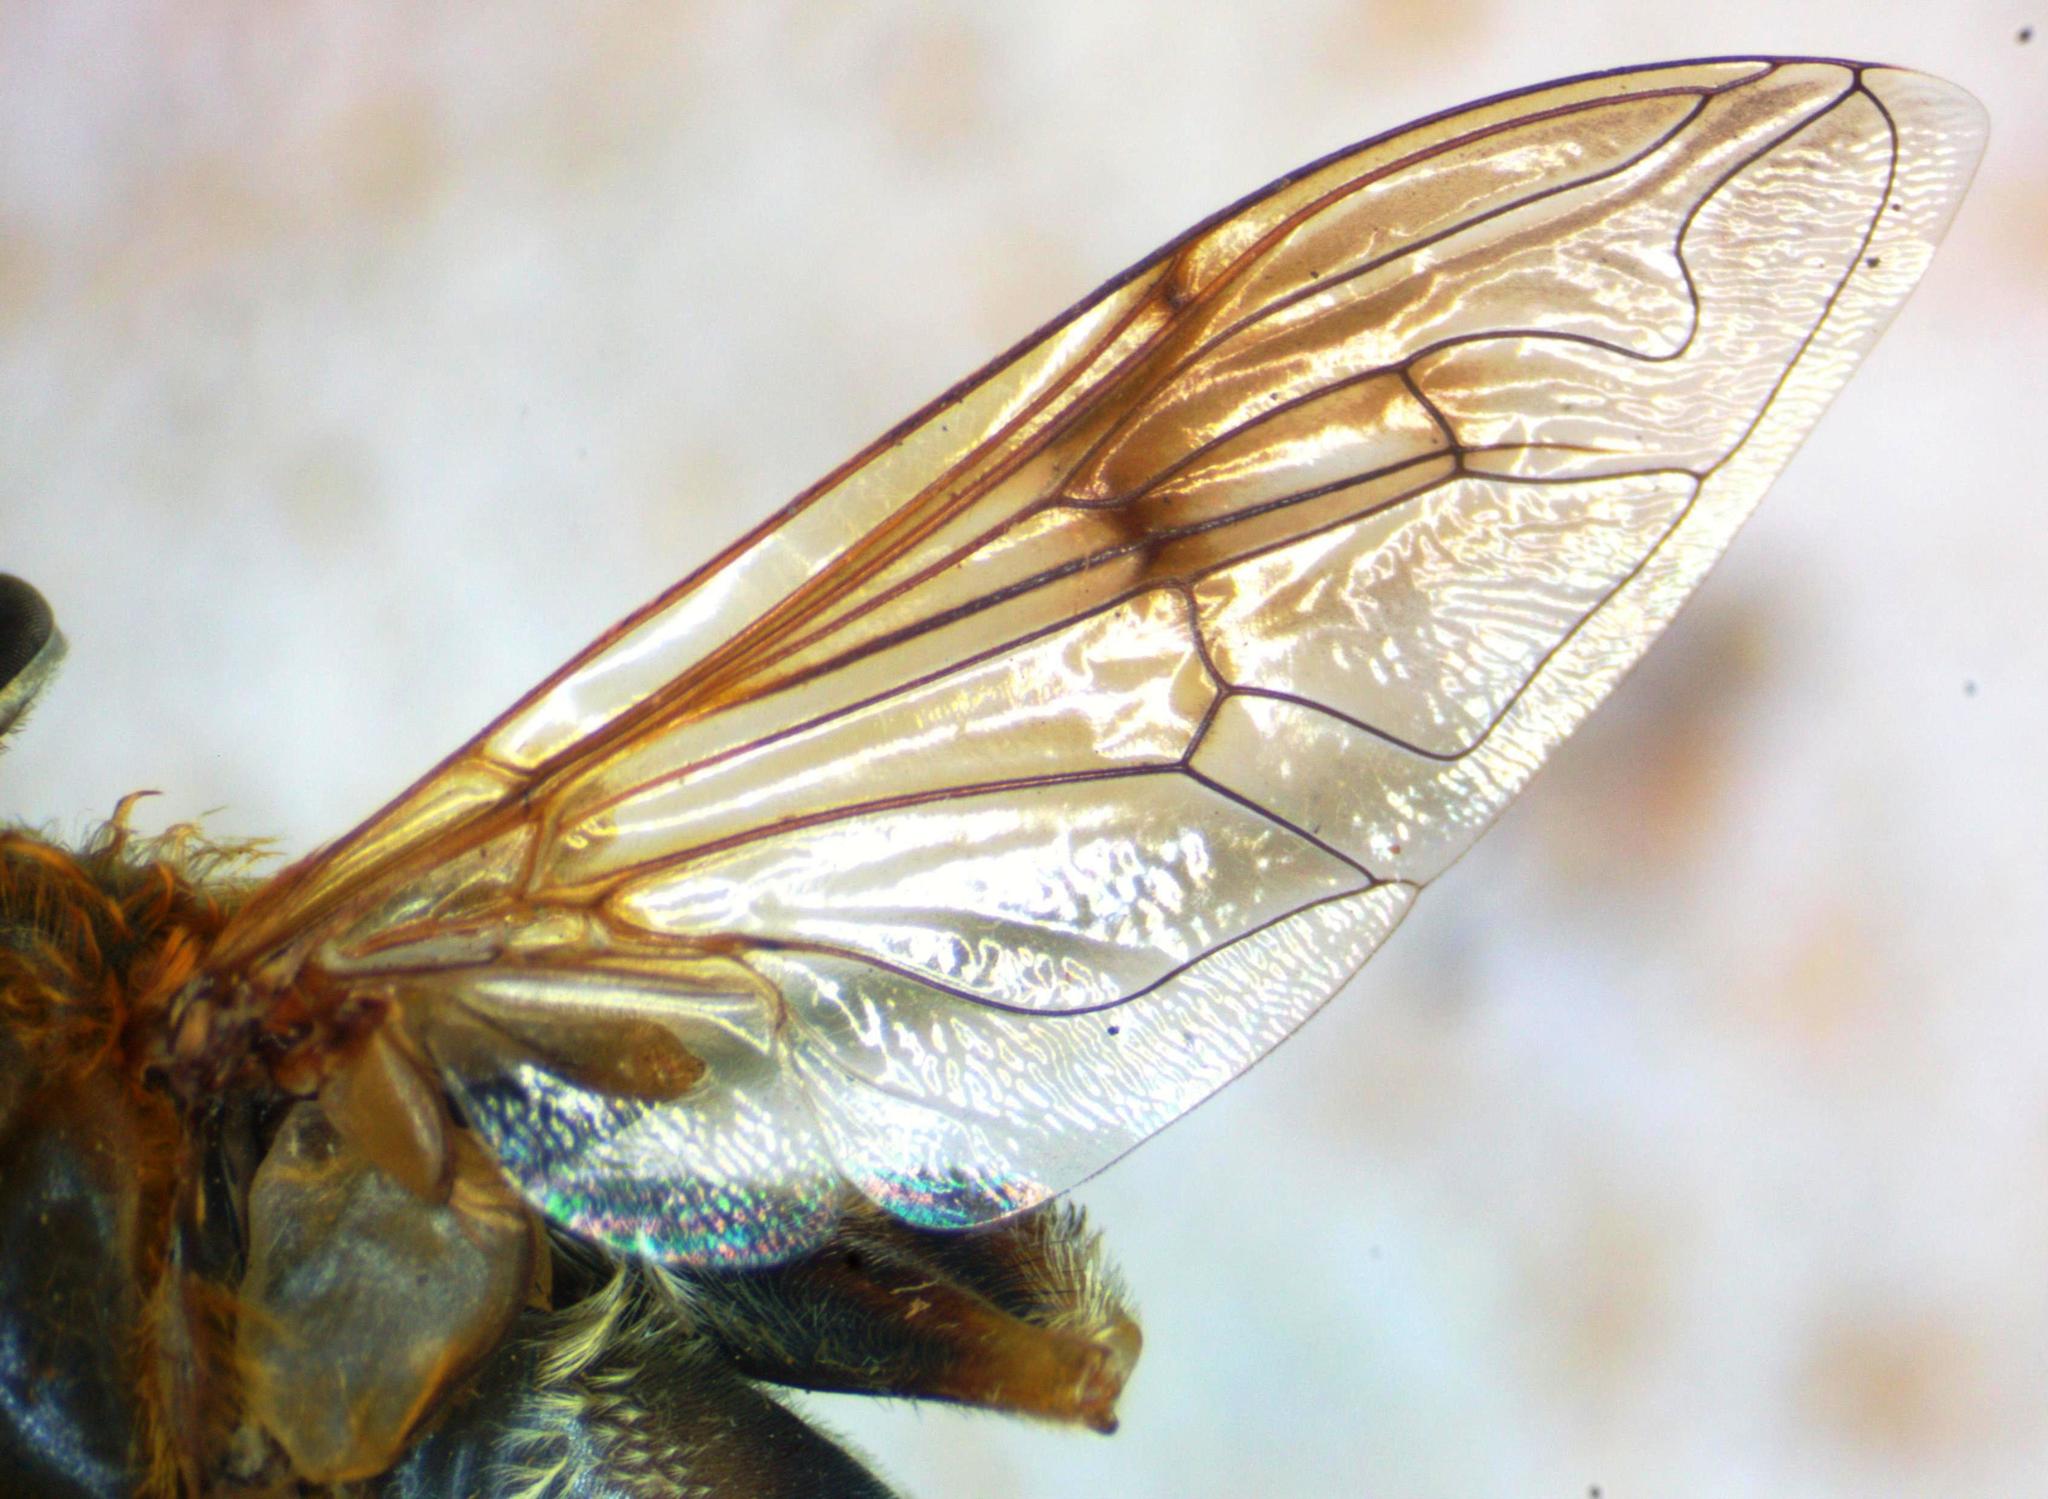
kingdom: Animalia
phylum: Arthropoda
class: Insecta
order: Diptera
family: Syrphidae
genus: Palpada
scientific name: Palpada mexicana
